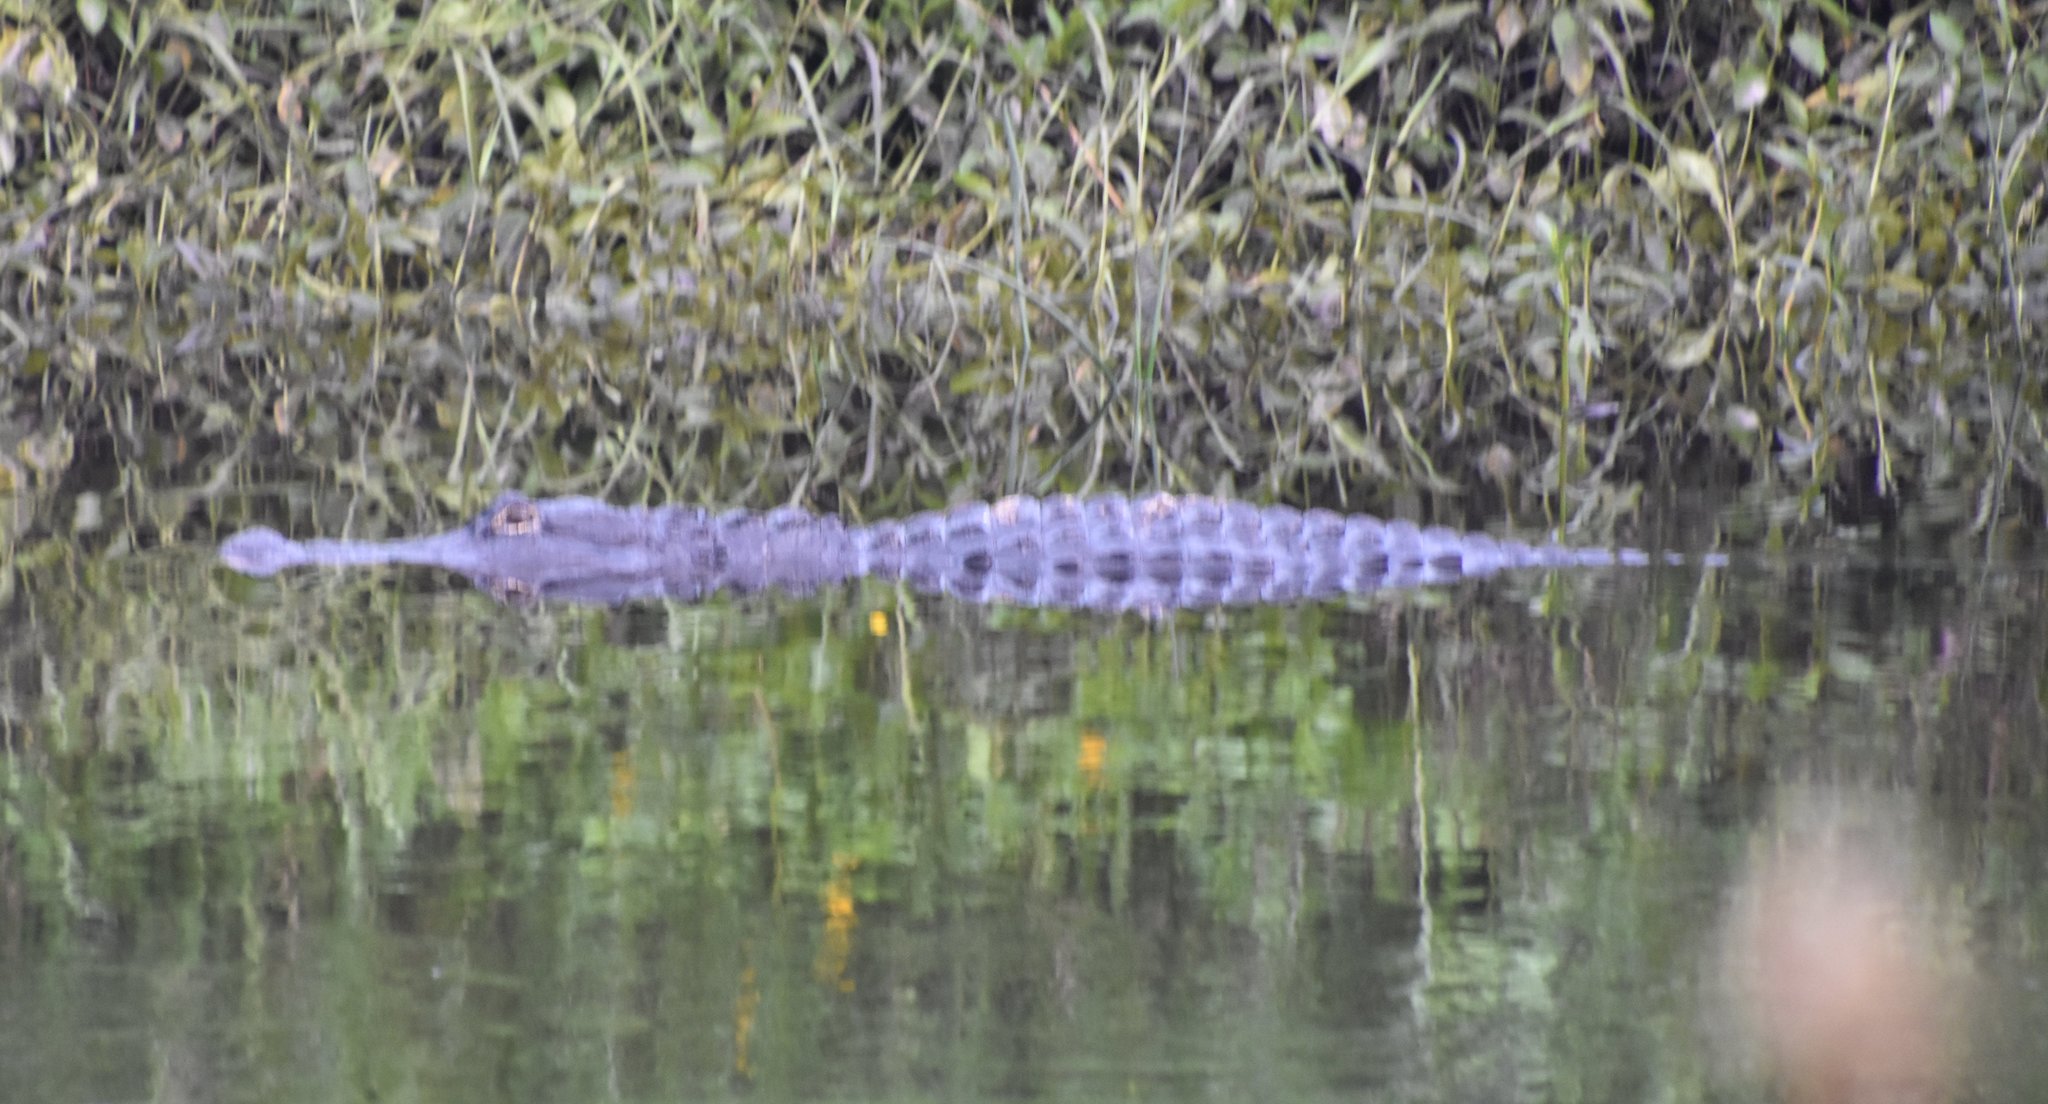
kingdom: Animalia
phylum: Chordata
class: Crocodylia
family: Alligatoridae
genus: Alligator
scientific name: Alligator mississippiensis
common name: American alligator
